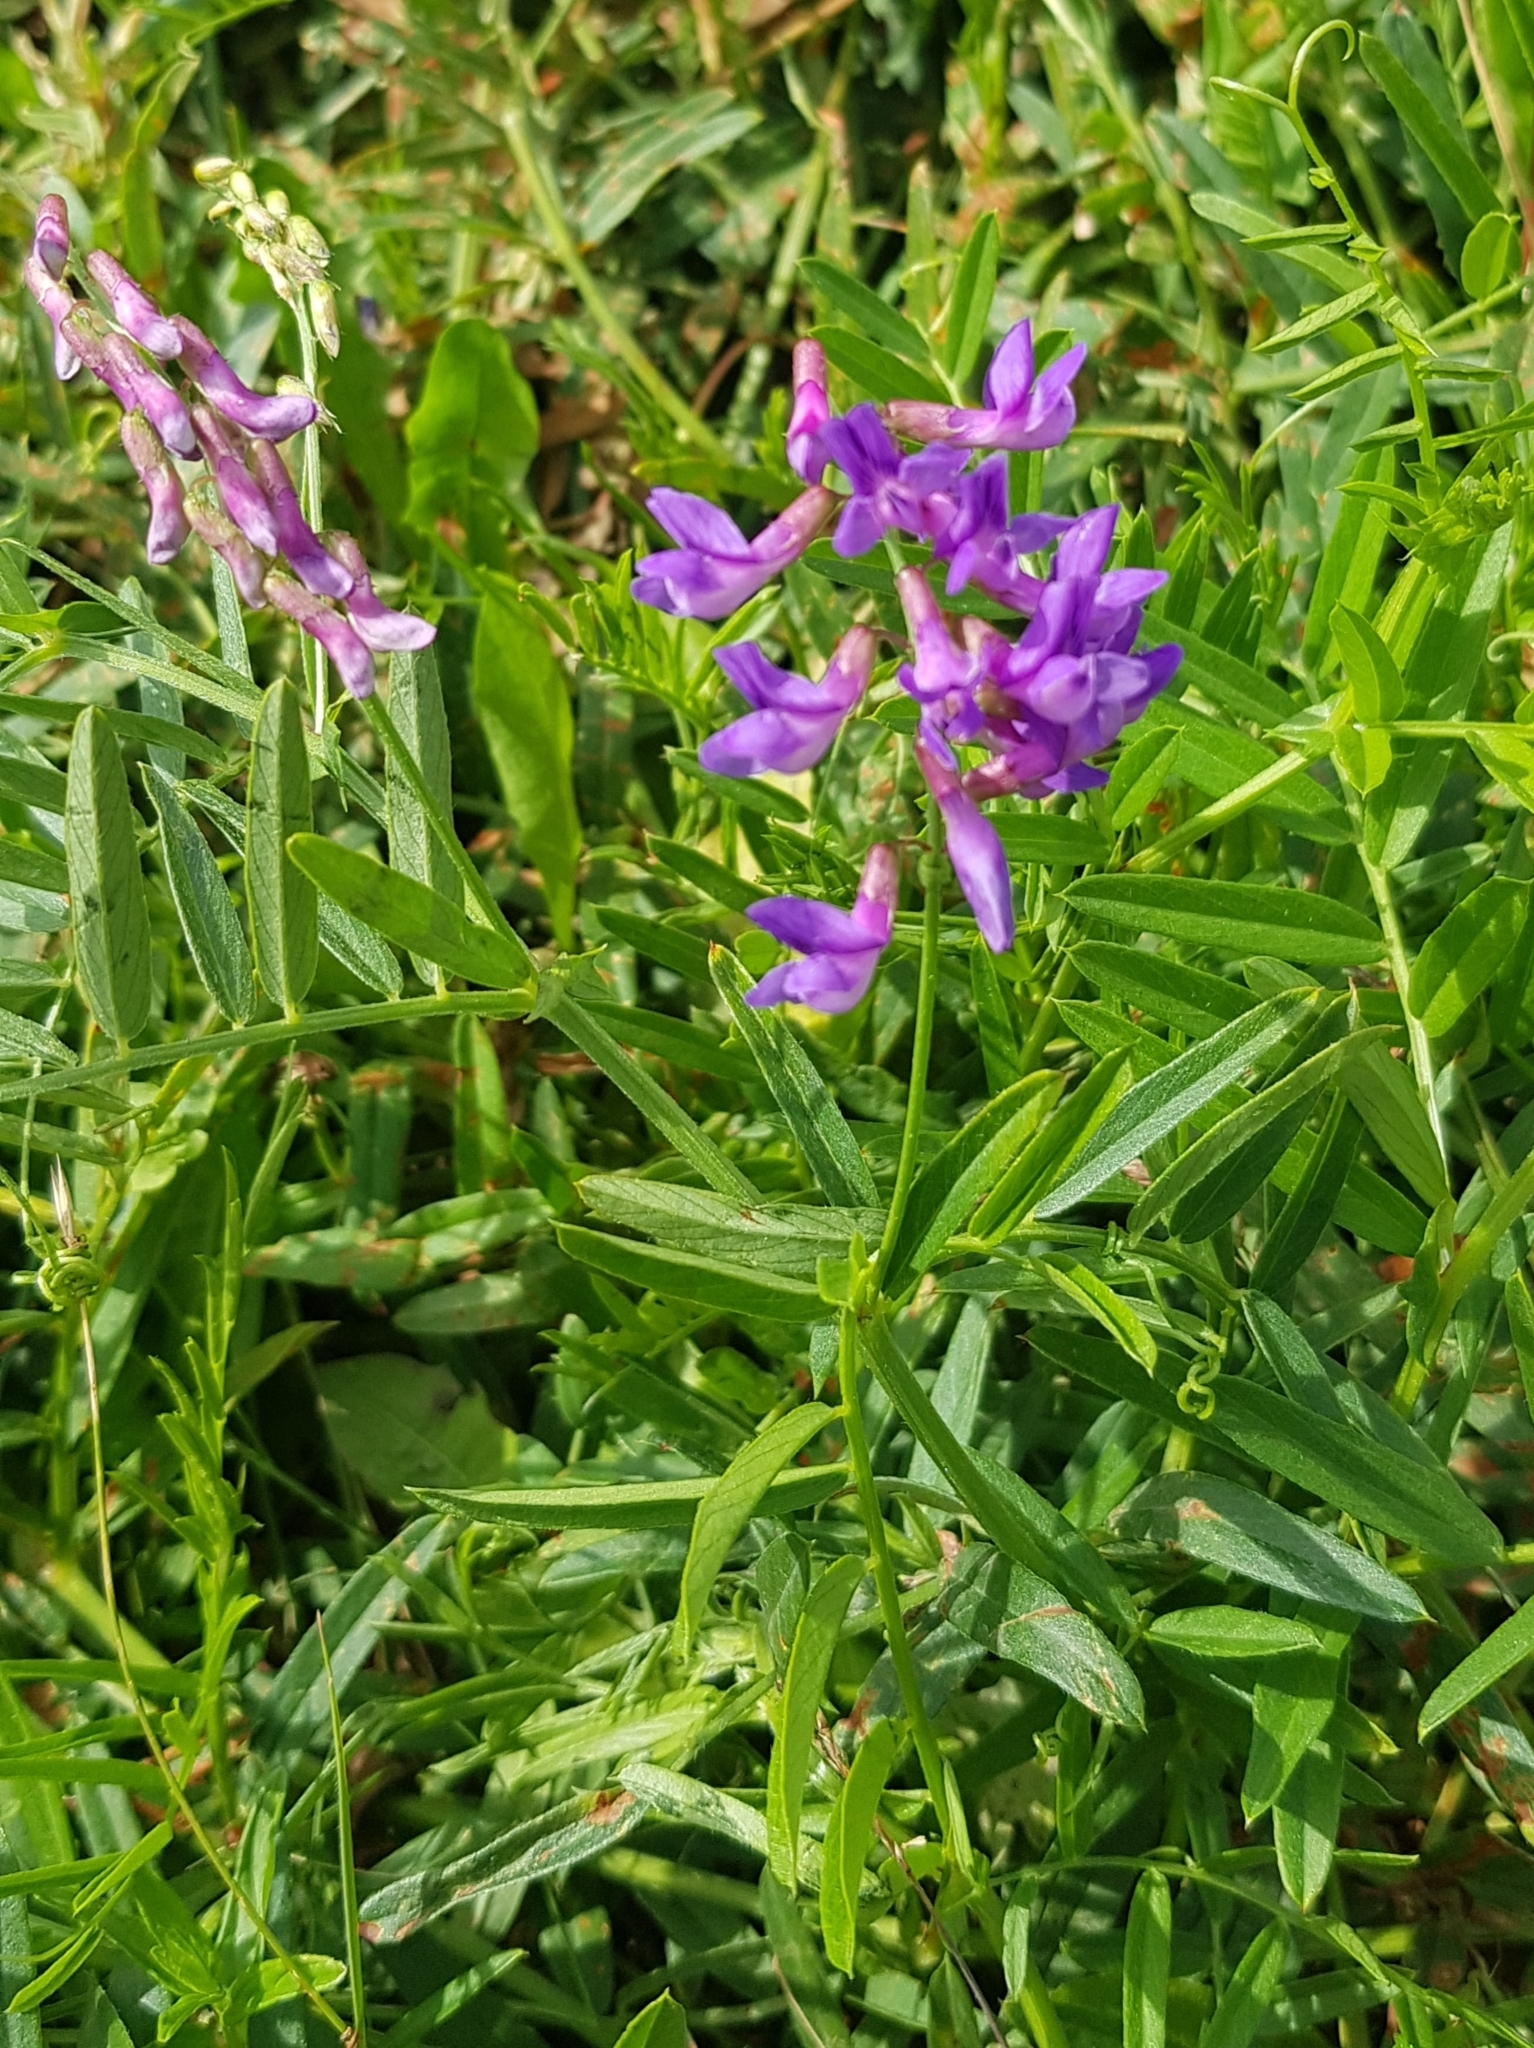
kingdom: Plantae
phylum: Tracheophyta
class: Magnoliopsida
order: Fabales
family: Fabaceae
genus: Vicia
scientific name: Vicia amoena
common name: Cheder ebs
